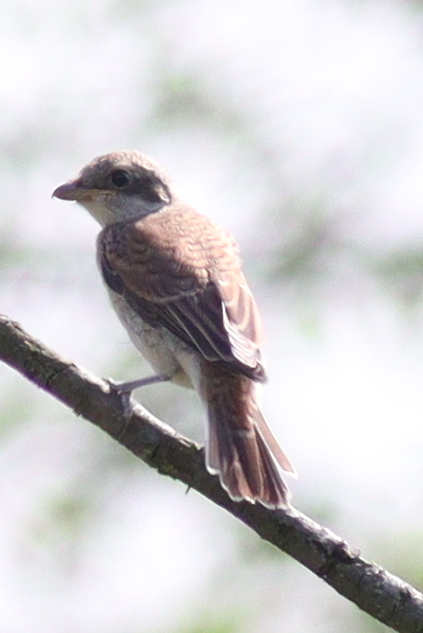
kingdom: Animalia
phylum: Chordata
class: Aves
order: Passeriformes
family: Laniidae
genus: Lanius
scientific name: Lanius collurio
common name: Red-backed shrike
